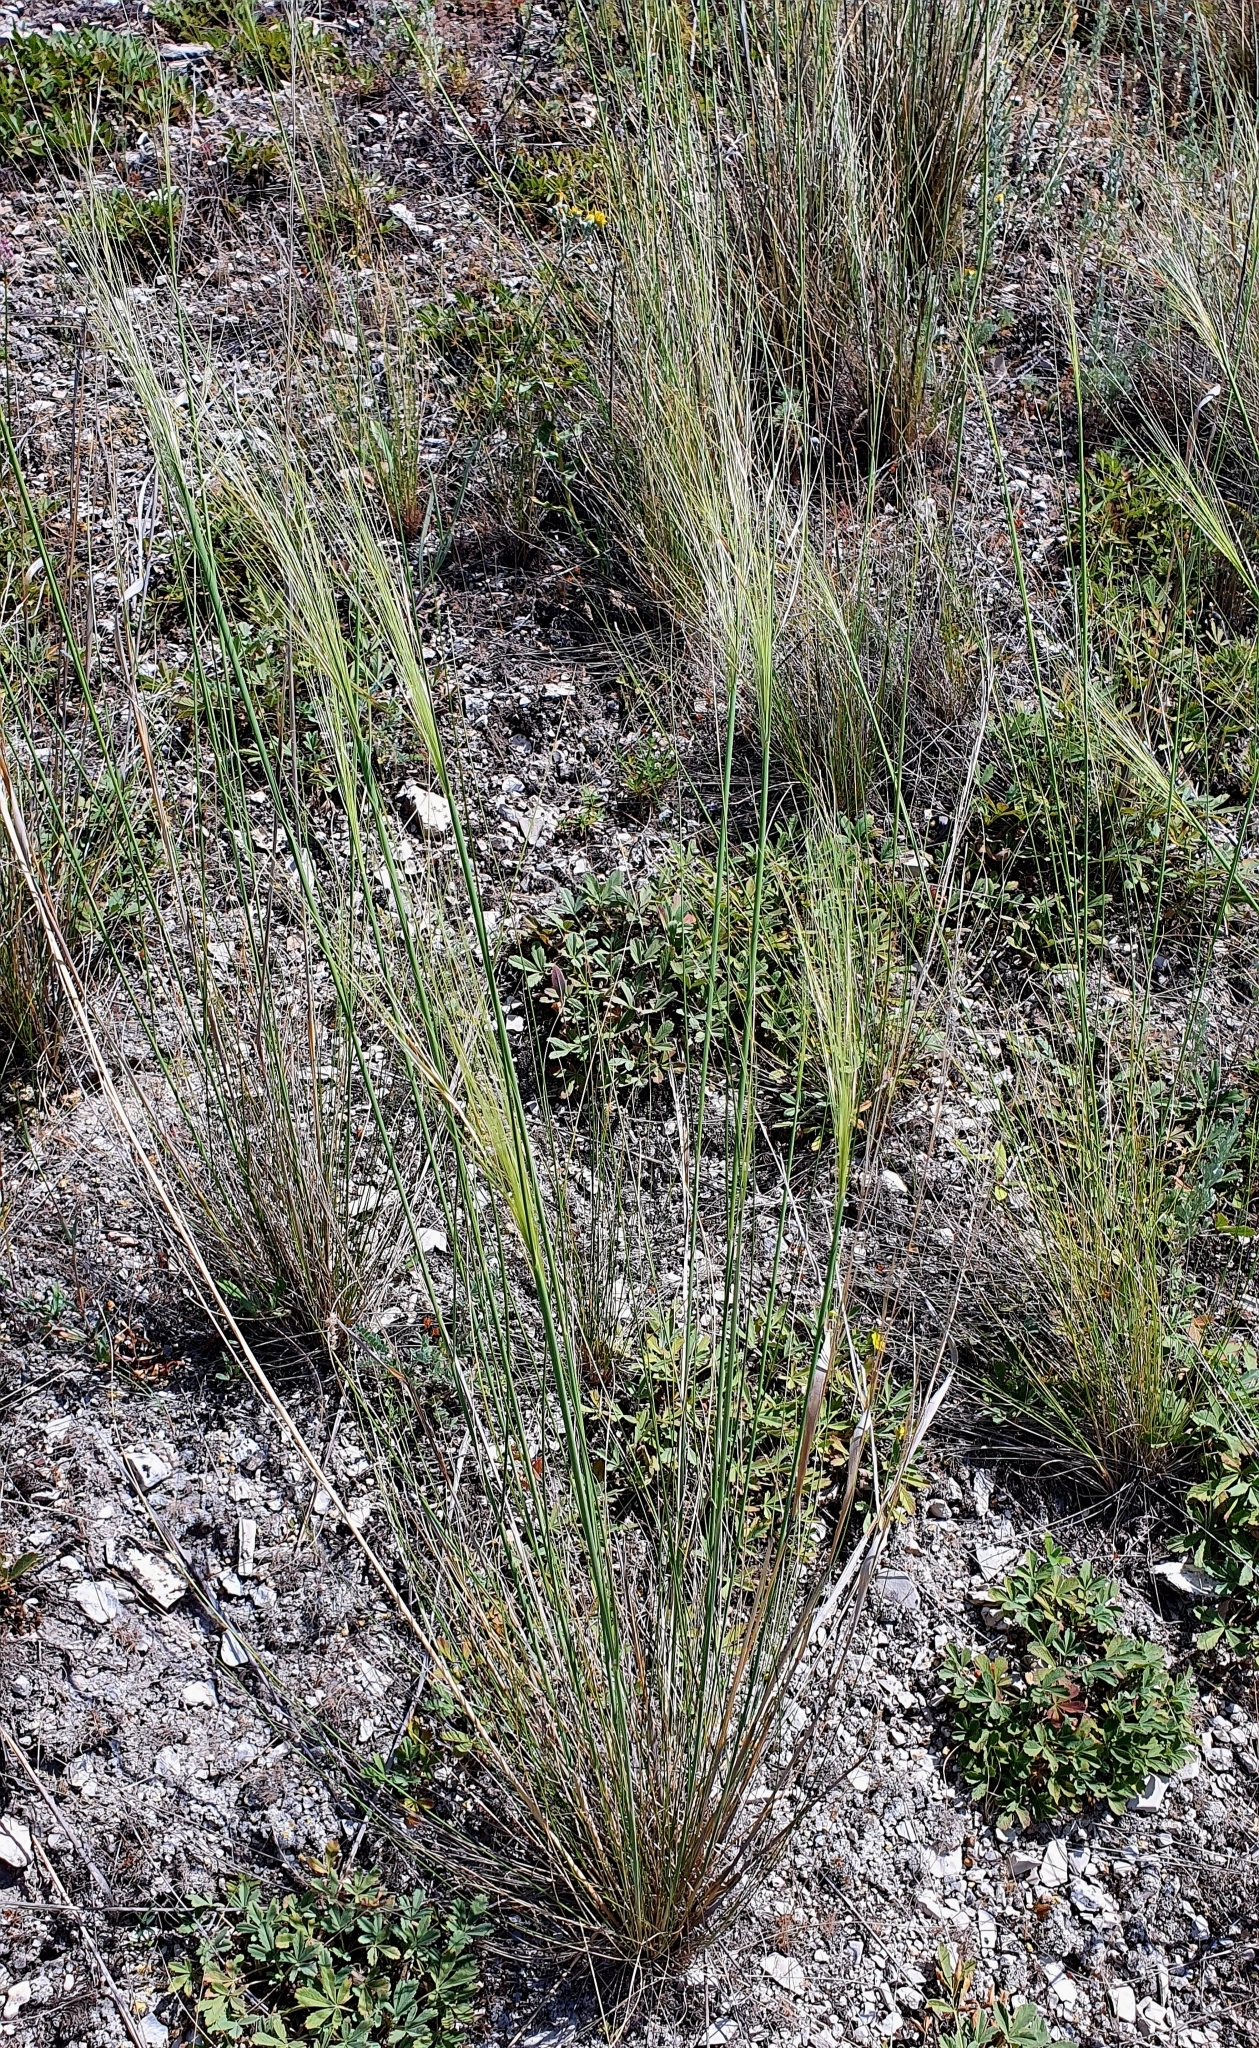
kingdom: Plantae
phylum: Tracheophyta
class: Liliopsida
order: Poales
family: Poaceae
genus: Stipa
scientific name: Stipa capillata
